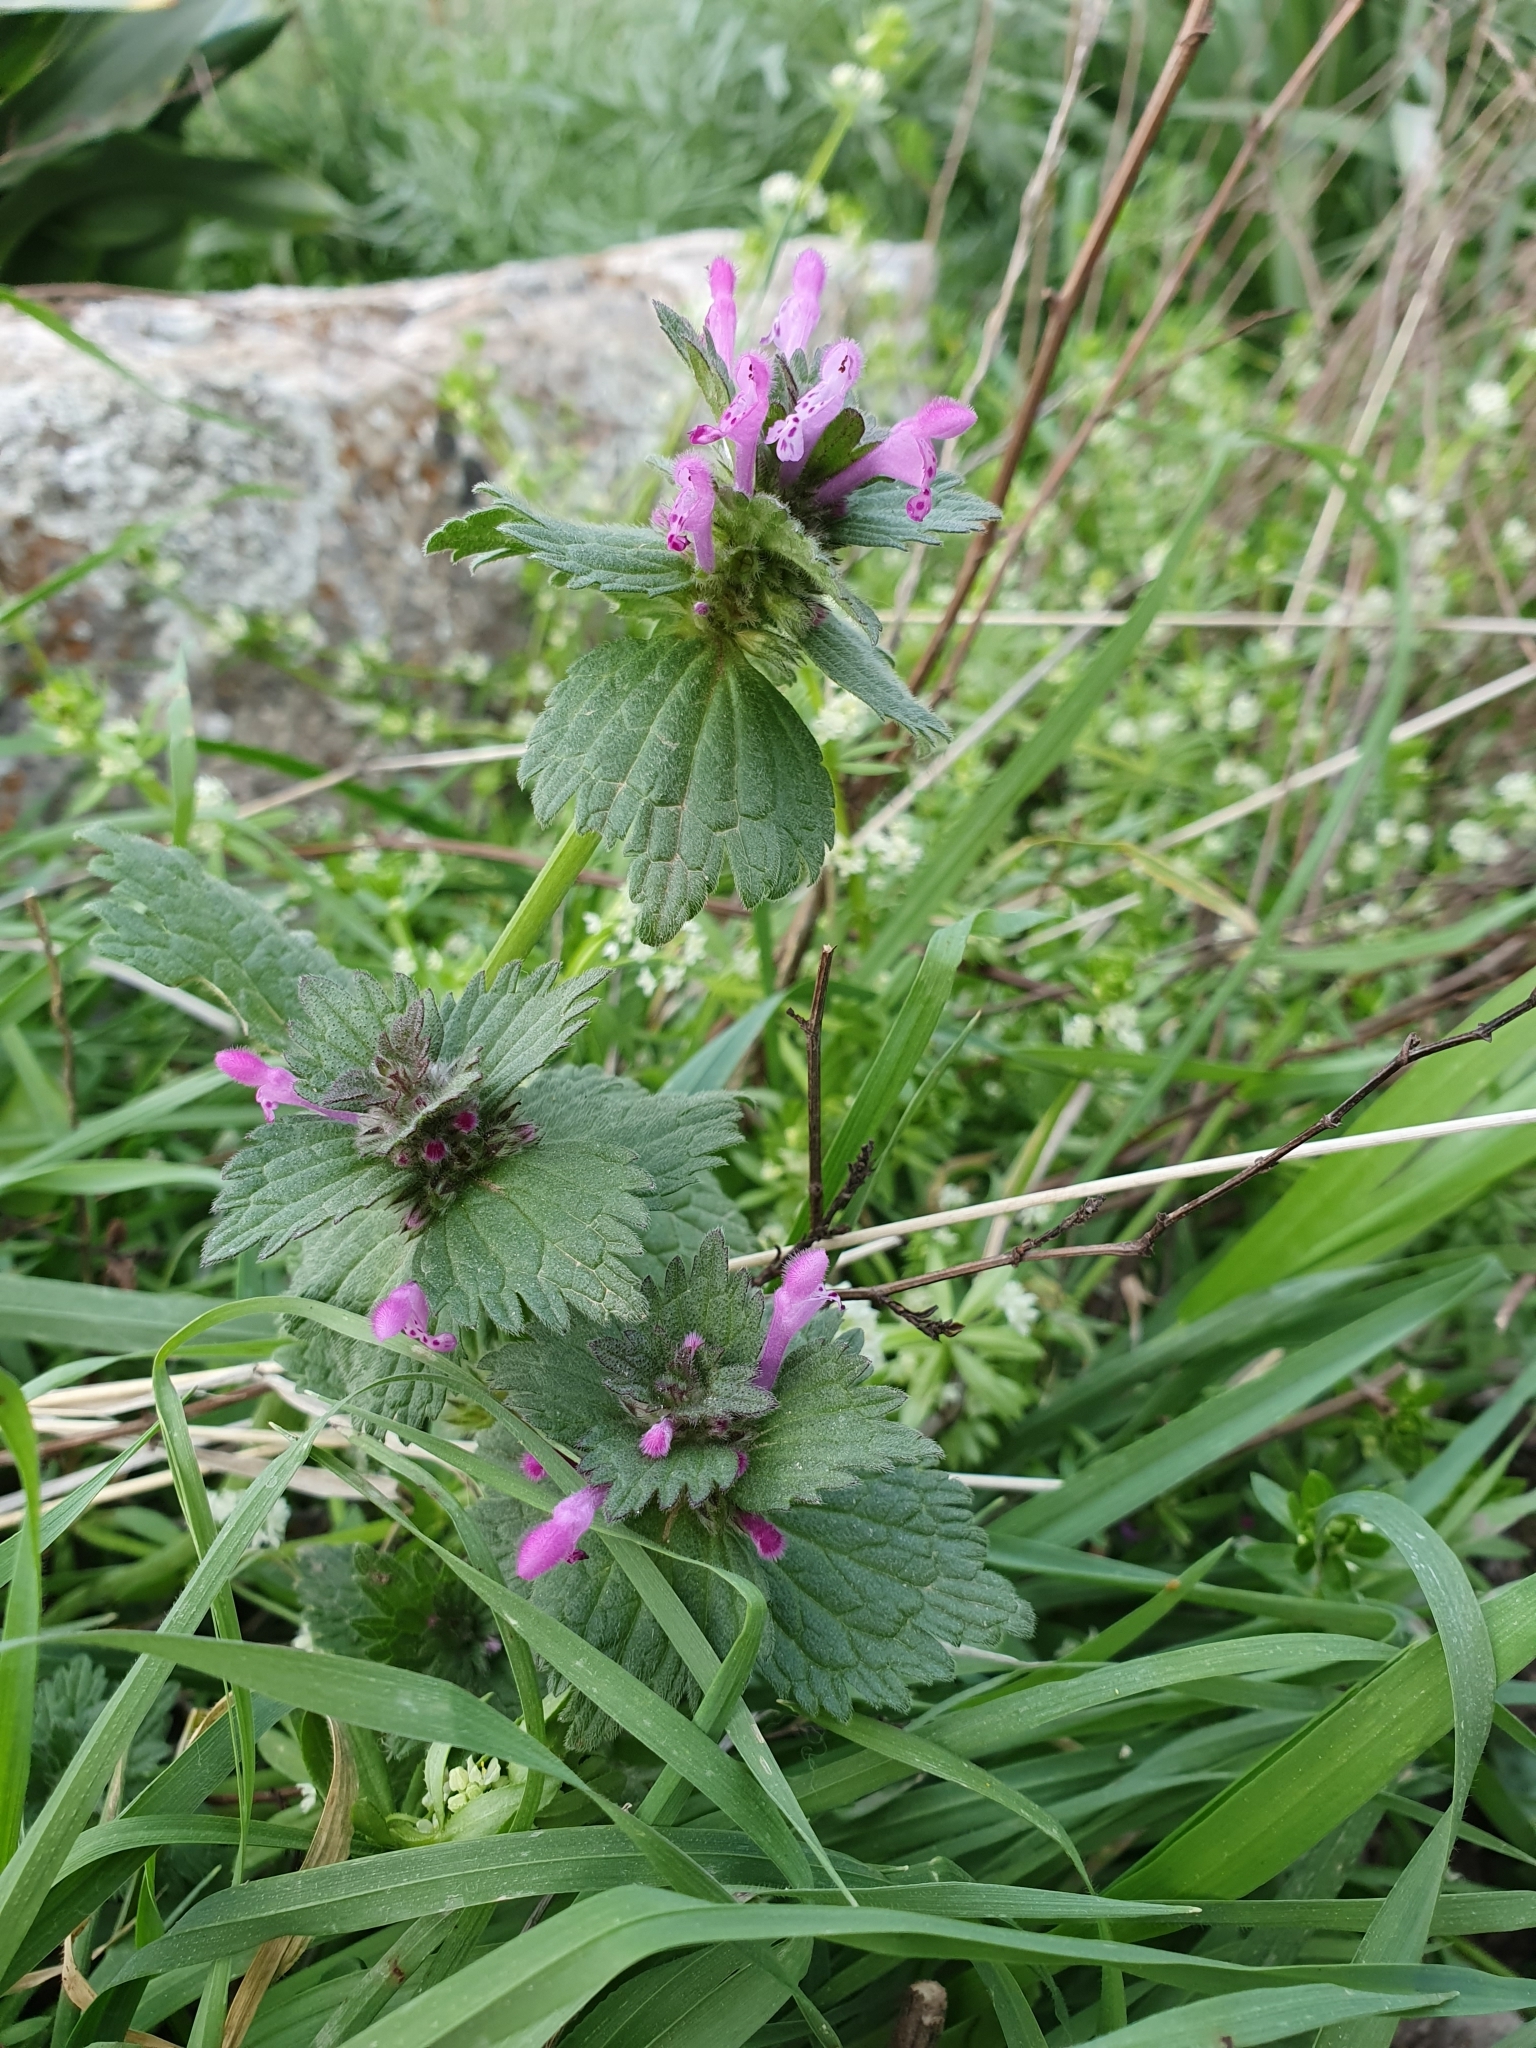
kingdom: Plantae
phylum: Tracheophyta
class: Magnoliopsida
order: Lamiales
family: Lamiaceae
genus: Lamium
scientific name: Lamium hybridum
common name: Cut-leaved dead-nettle
